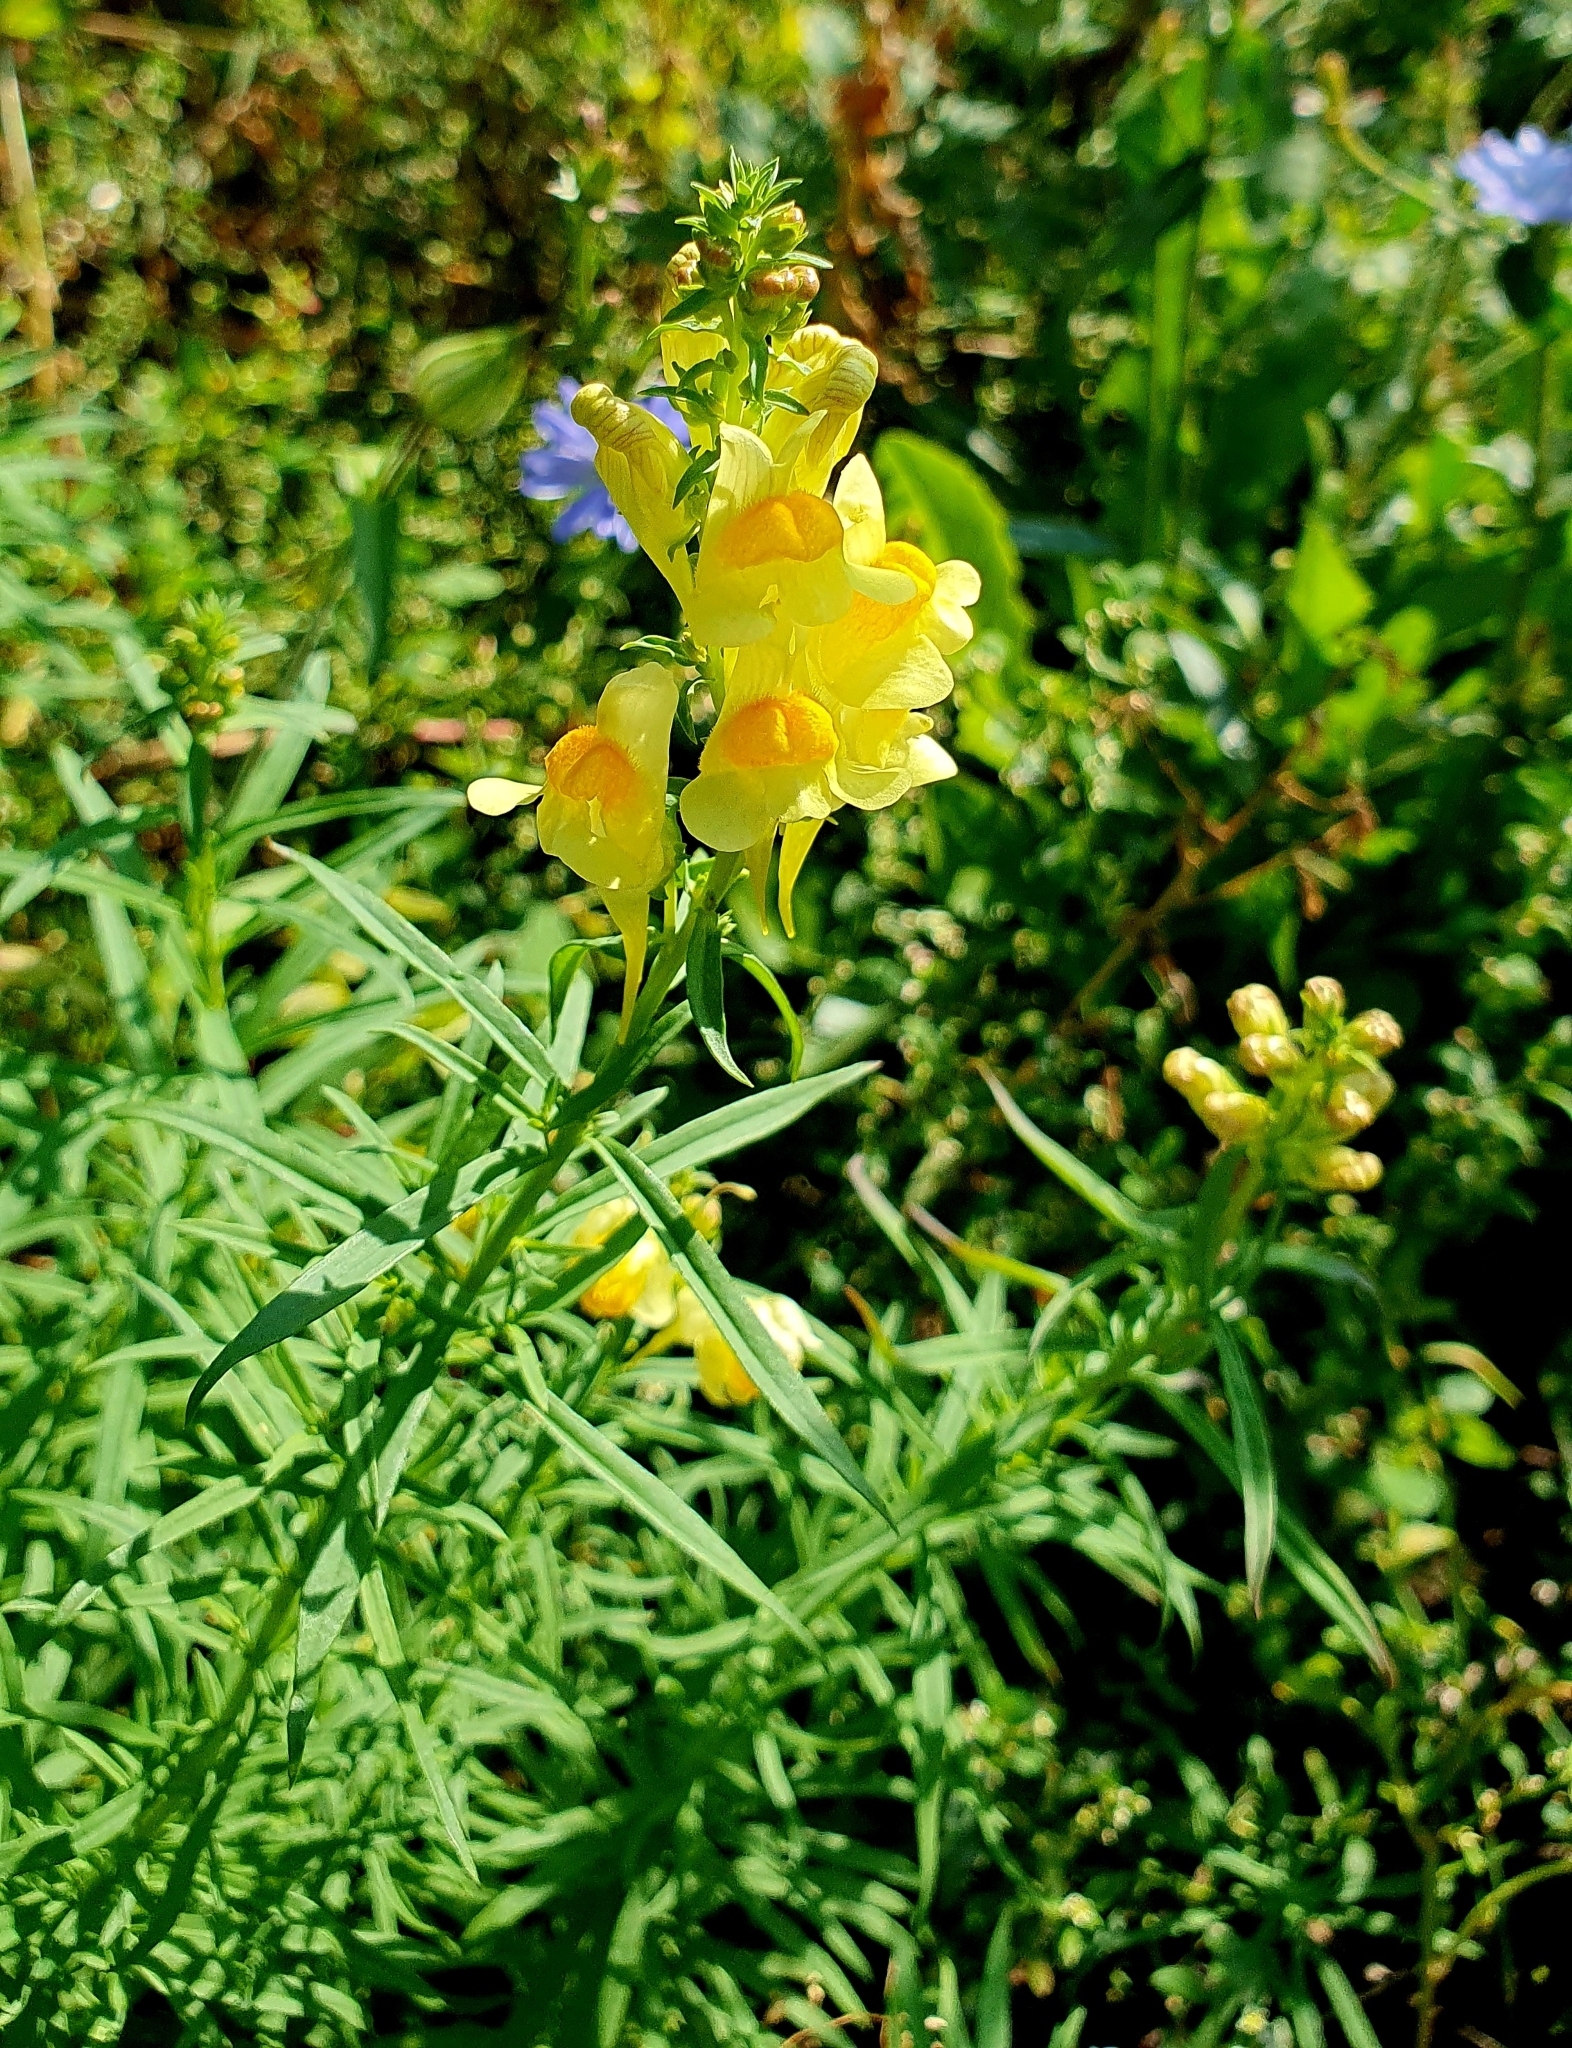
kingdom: Plantae
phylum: Tracheophyta
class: Magnoliopsida
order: Lamiales
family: Plantaginaceae
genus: Linaria
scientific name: Linaria vulgaris
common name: Butter and eggs
